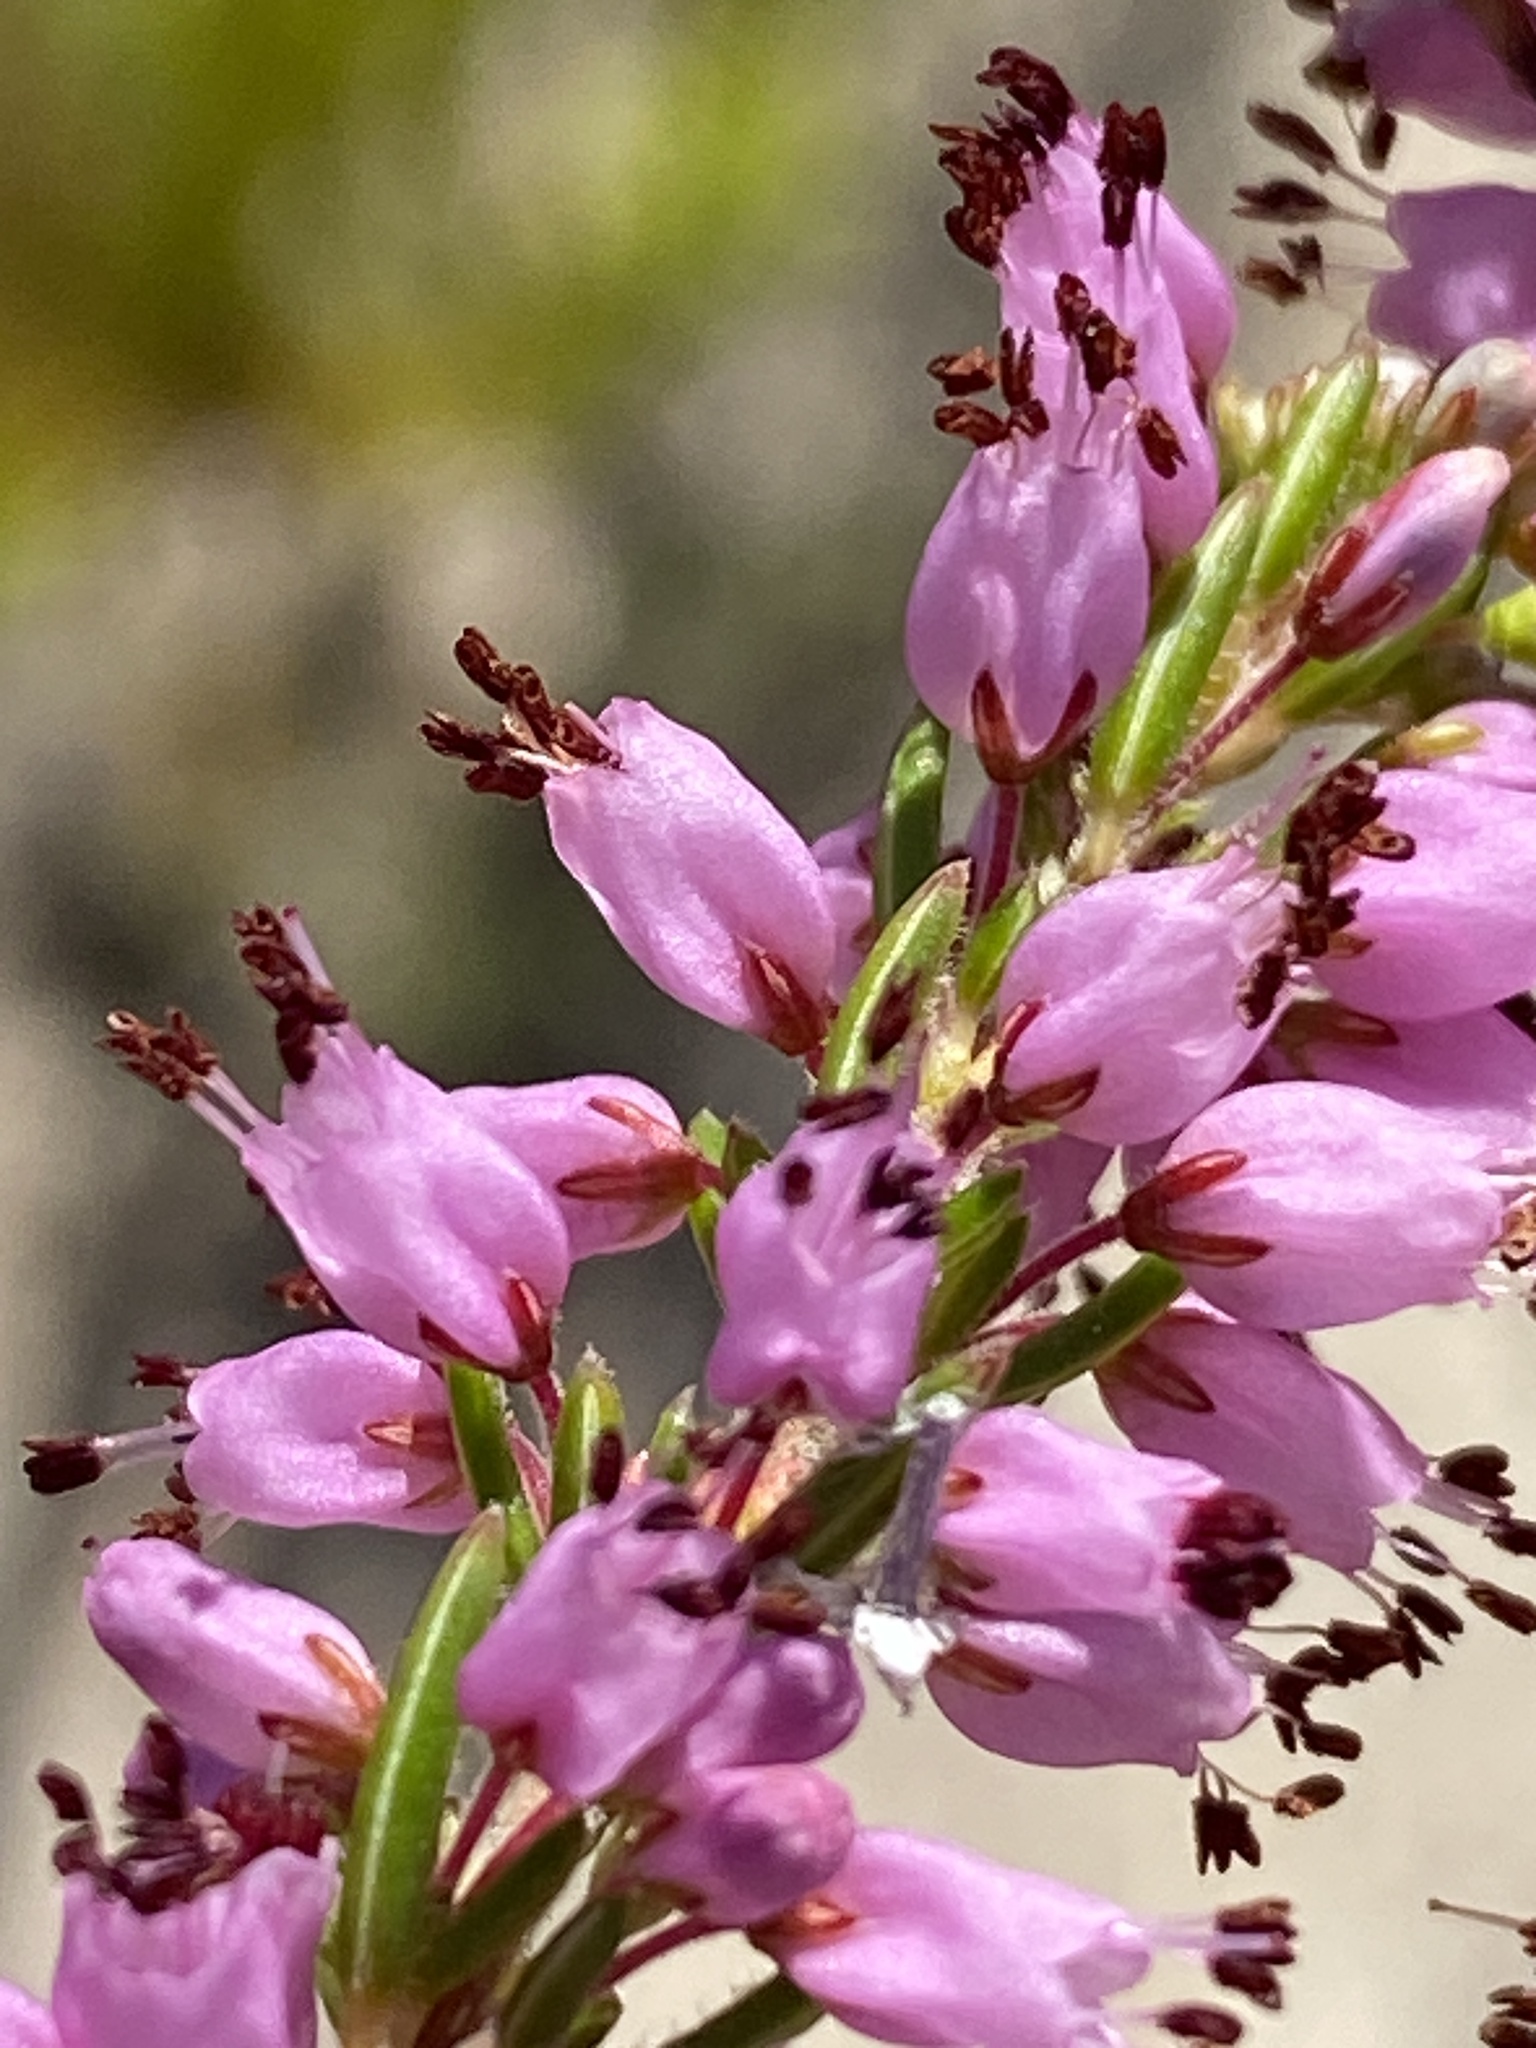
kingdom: Plantae
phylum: Tracheophyta
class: Magnoliopsida
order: Ericales
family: Ericaceae
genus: Erica
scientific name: Erica nudiflora
